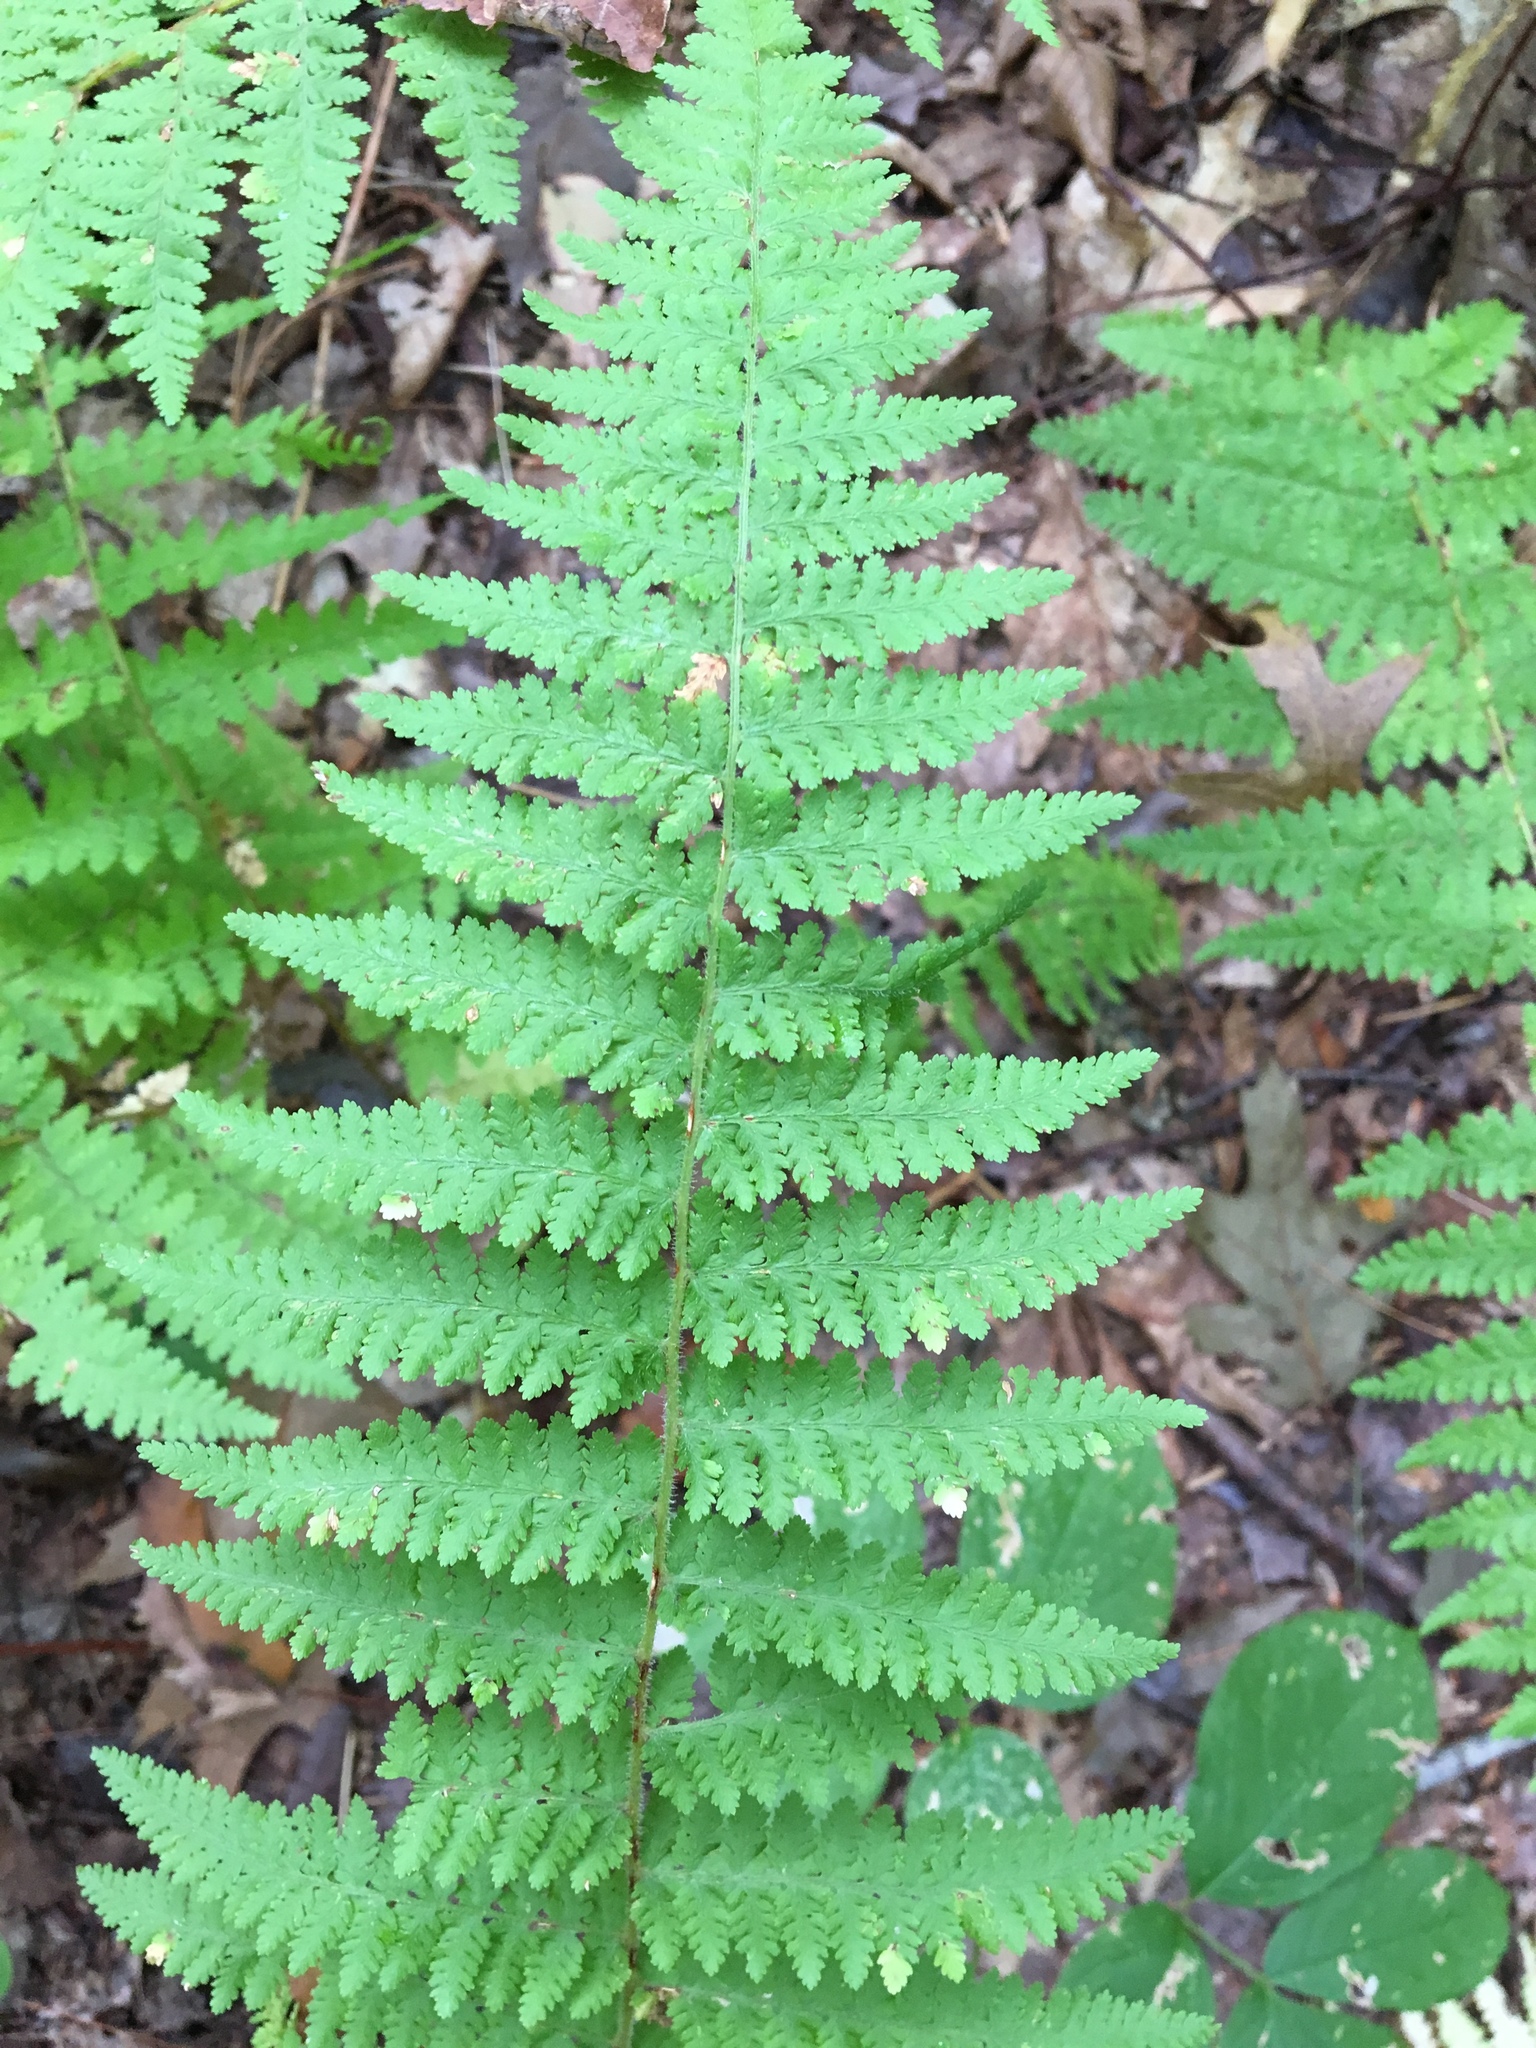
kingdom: Plantae
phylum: Tracheophyta
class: Polypodiopsida
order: Polypodiales
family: Dennstaedtiaceae
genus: Sitobolium
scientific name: Sitobolium punctilobum
